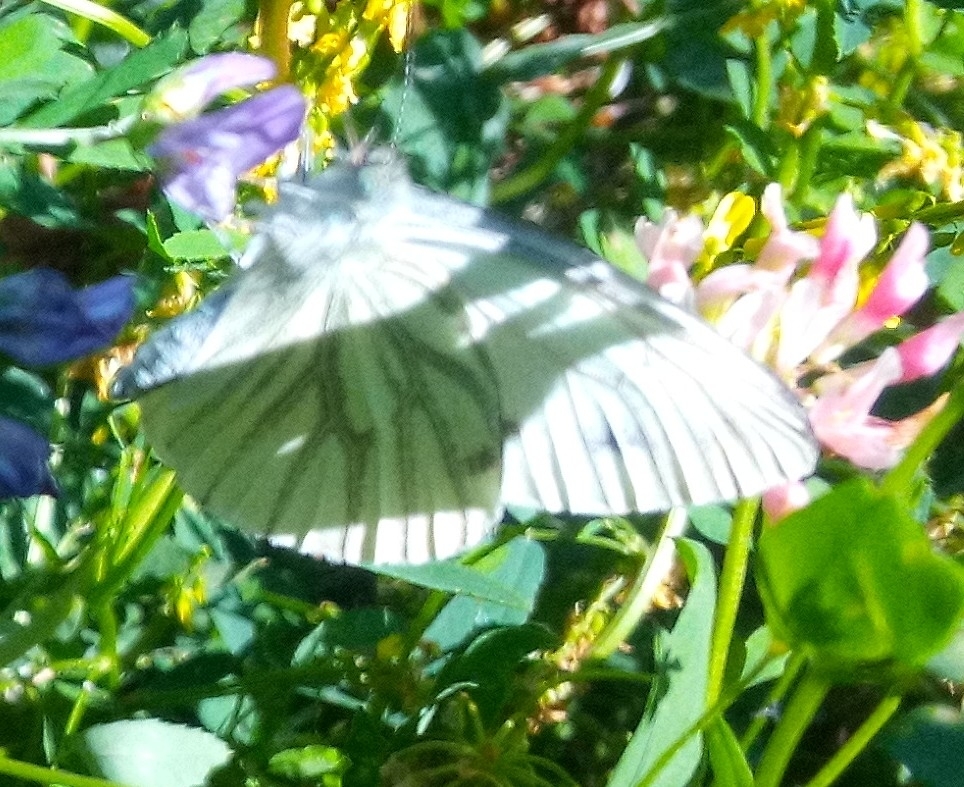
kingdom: Animalia
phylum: Arthropoda
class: Insecta
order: Lepidoptera
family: Pieridae
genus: Pieris
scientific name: Pieris napi
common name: Green-veined white
